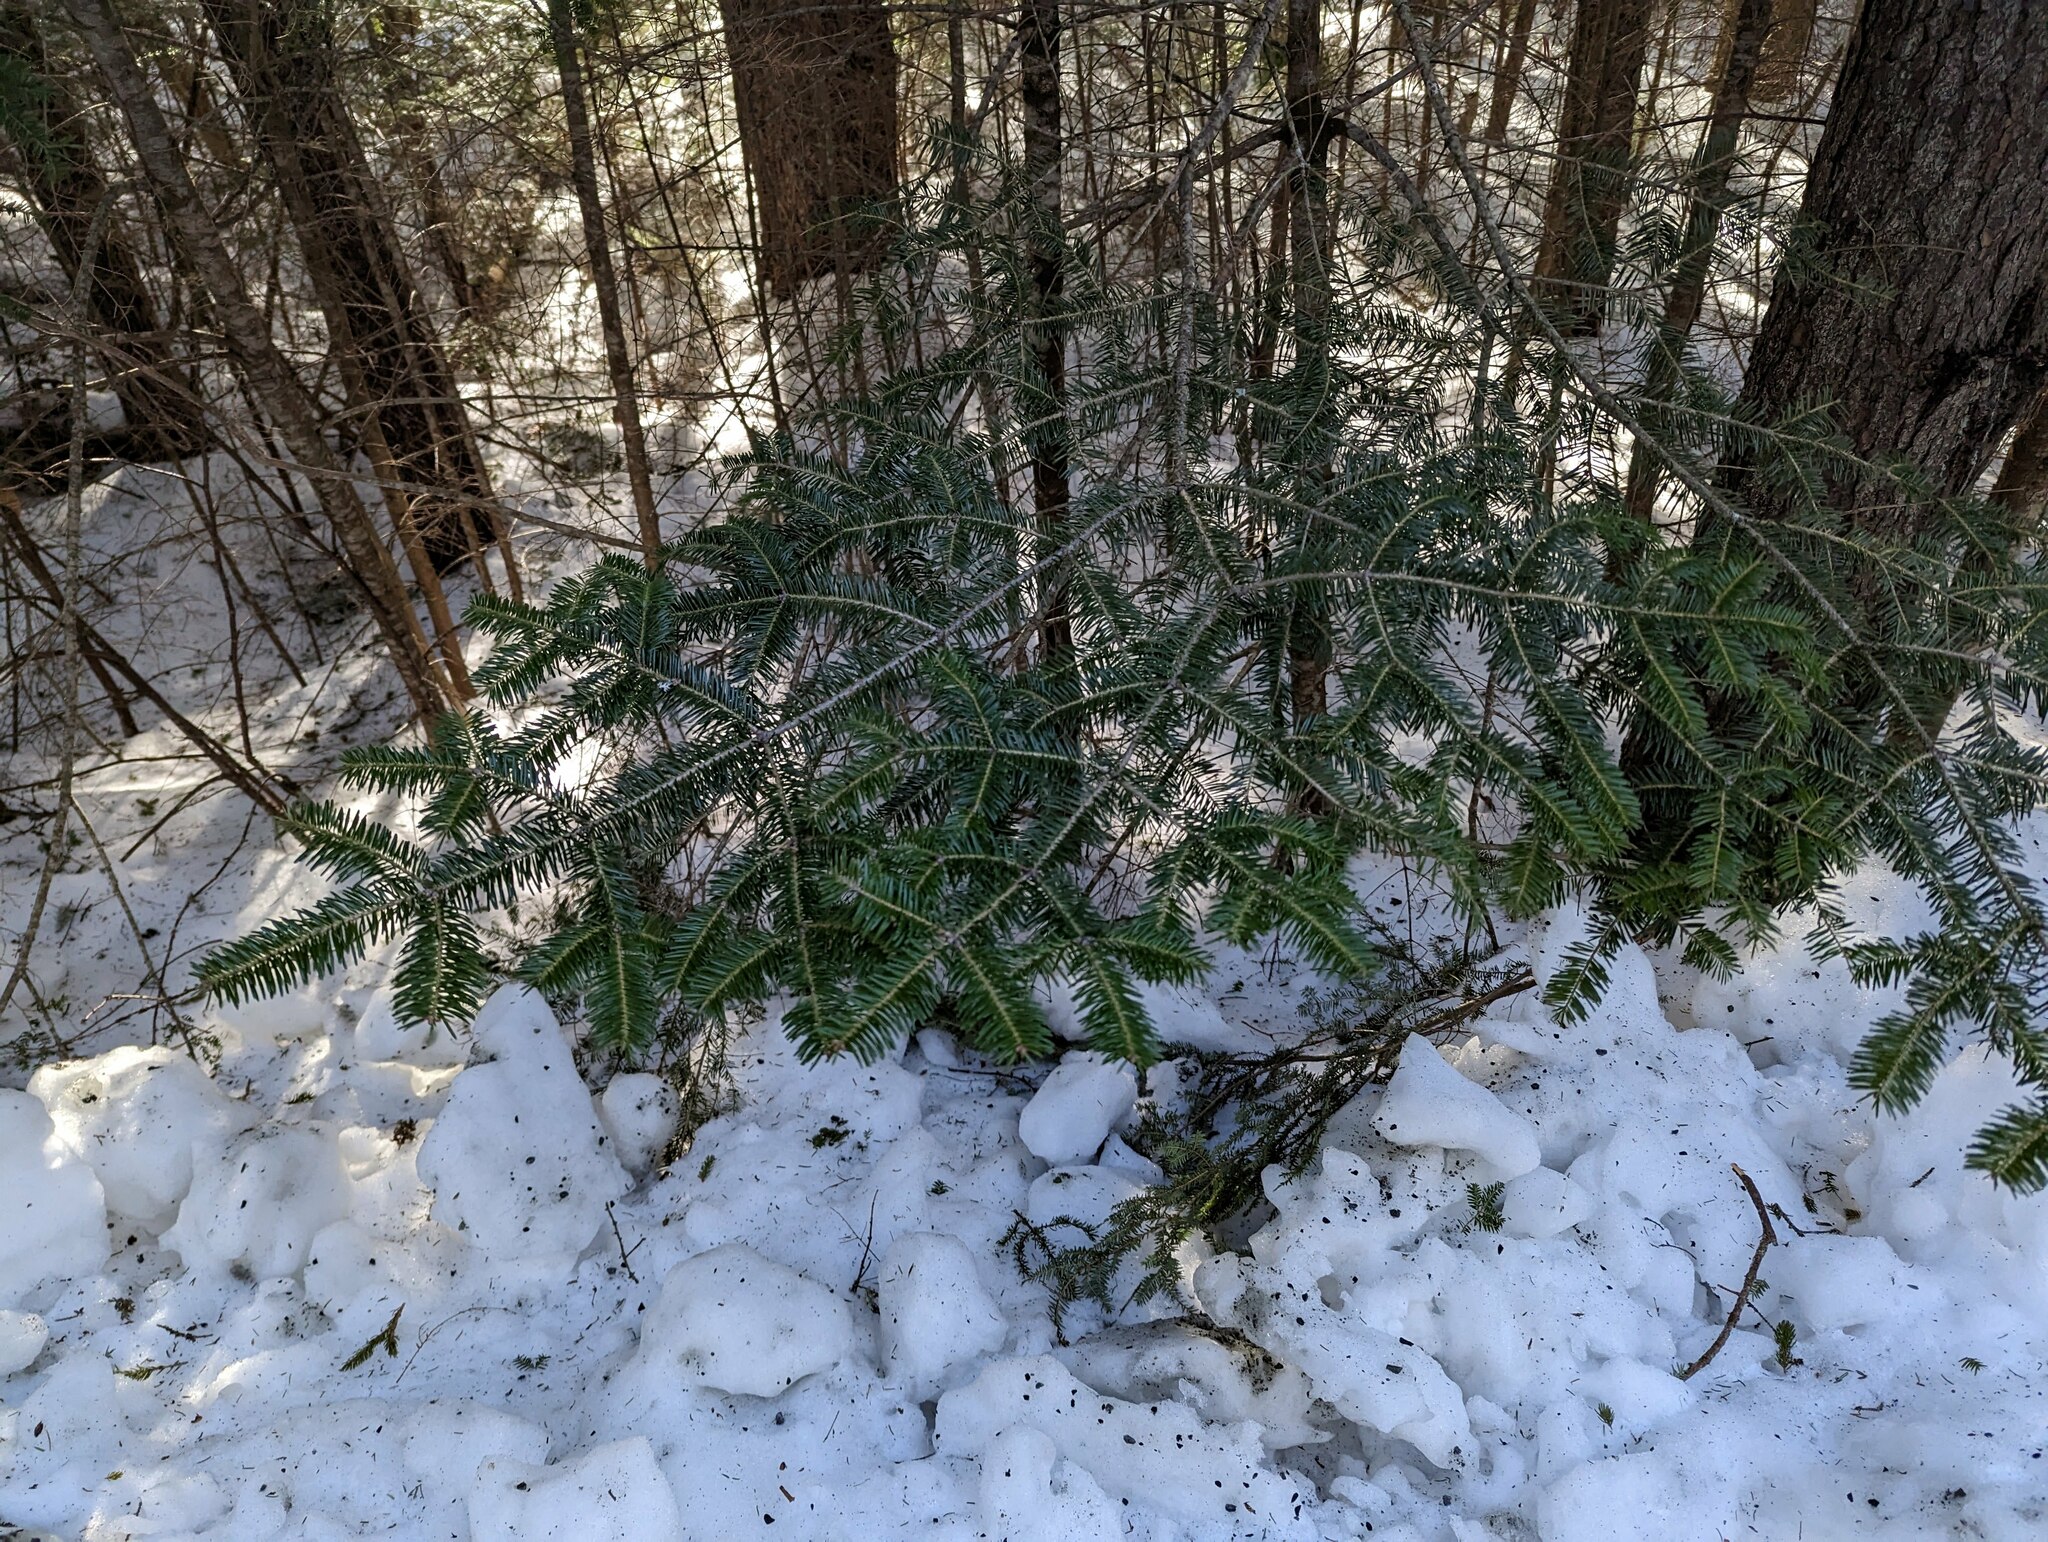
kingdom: Plantae
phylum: Tracheophyta
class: Pinopsida
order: Pinales
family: Pinaceae
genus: Abies
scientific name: Abies balsamea
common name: Balsam fir
